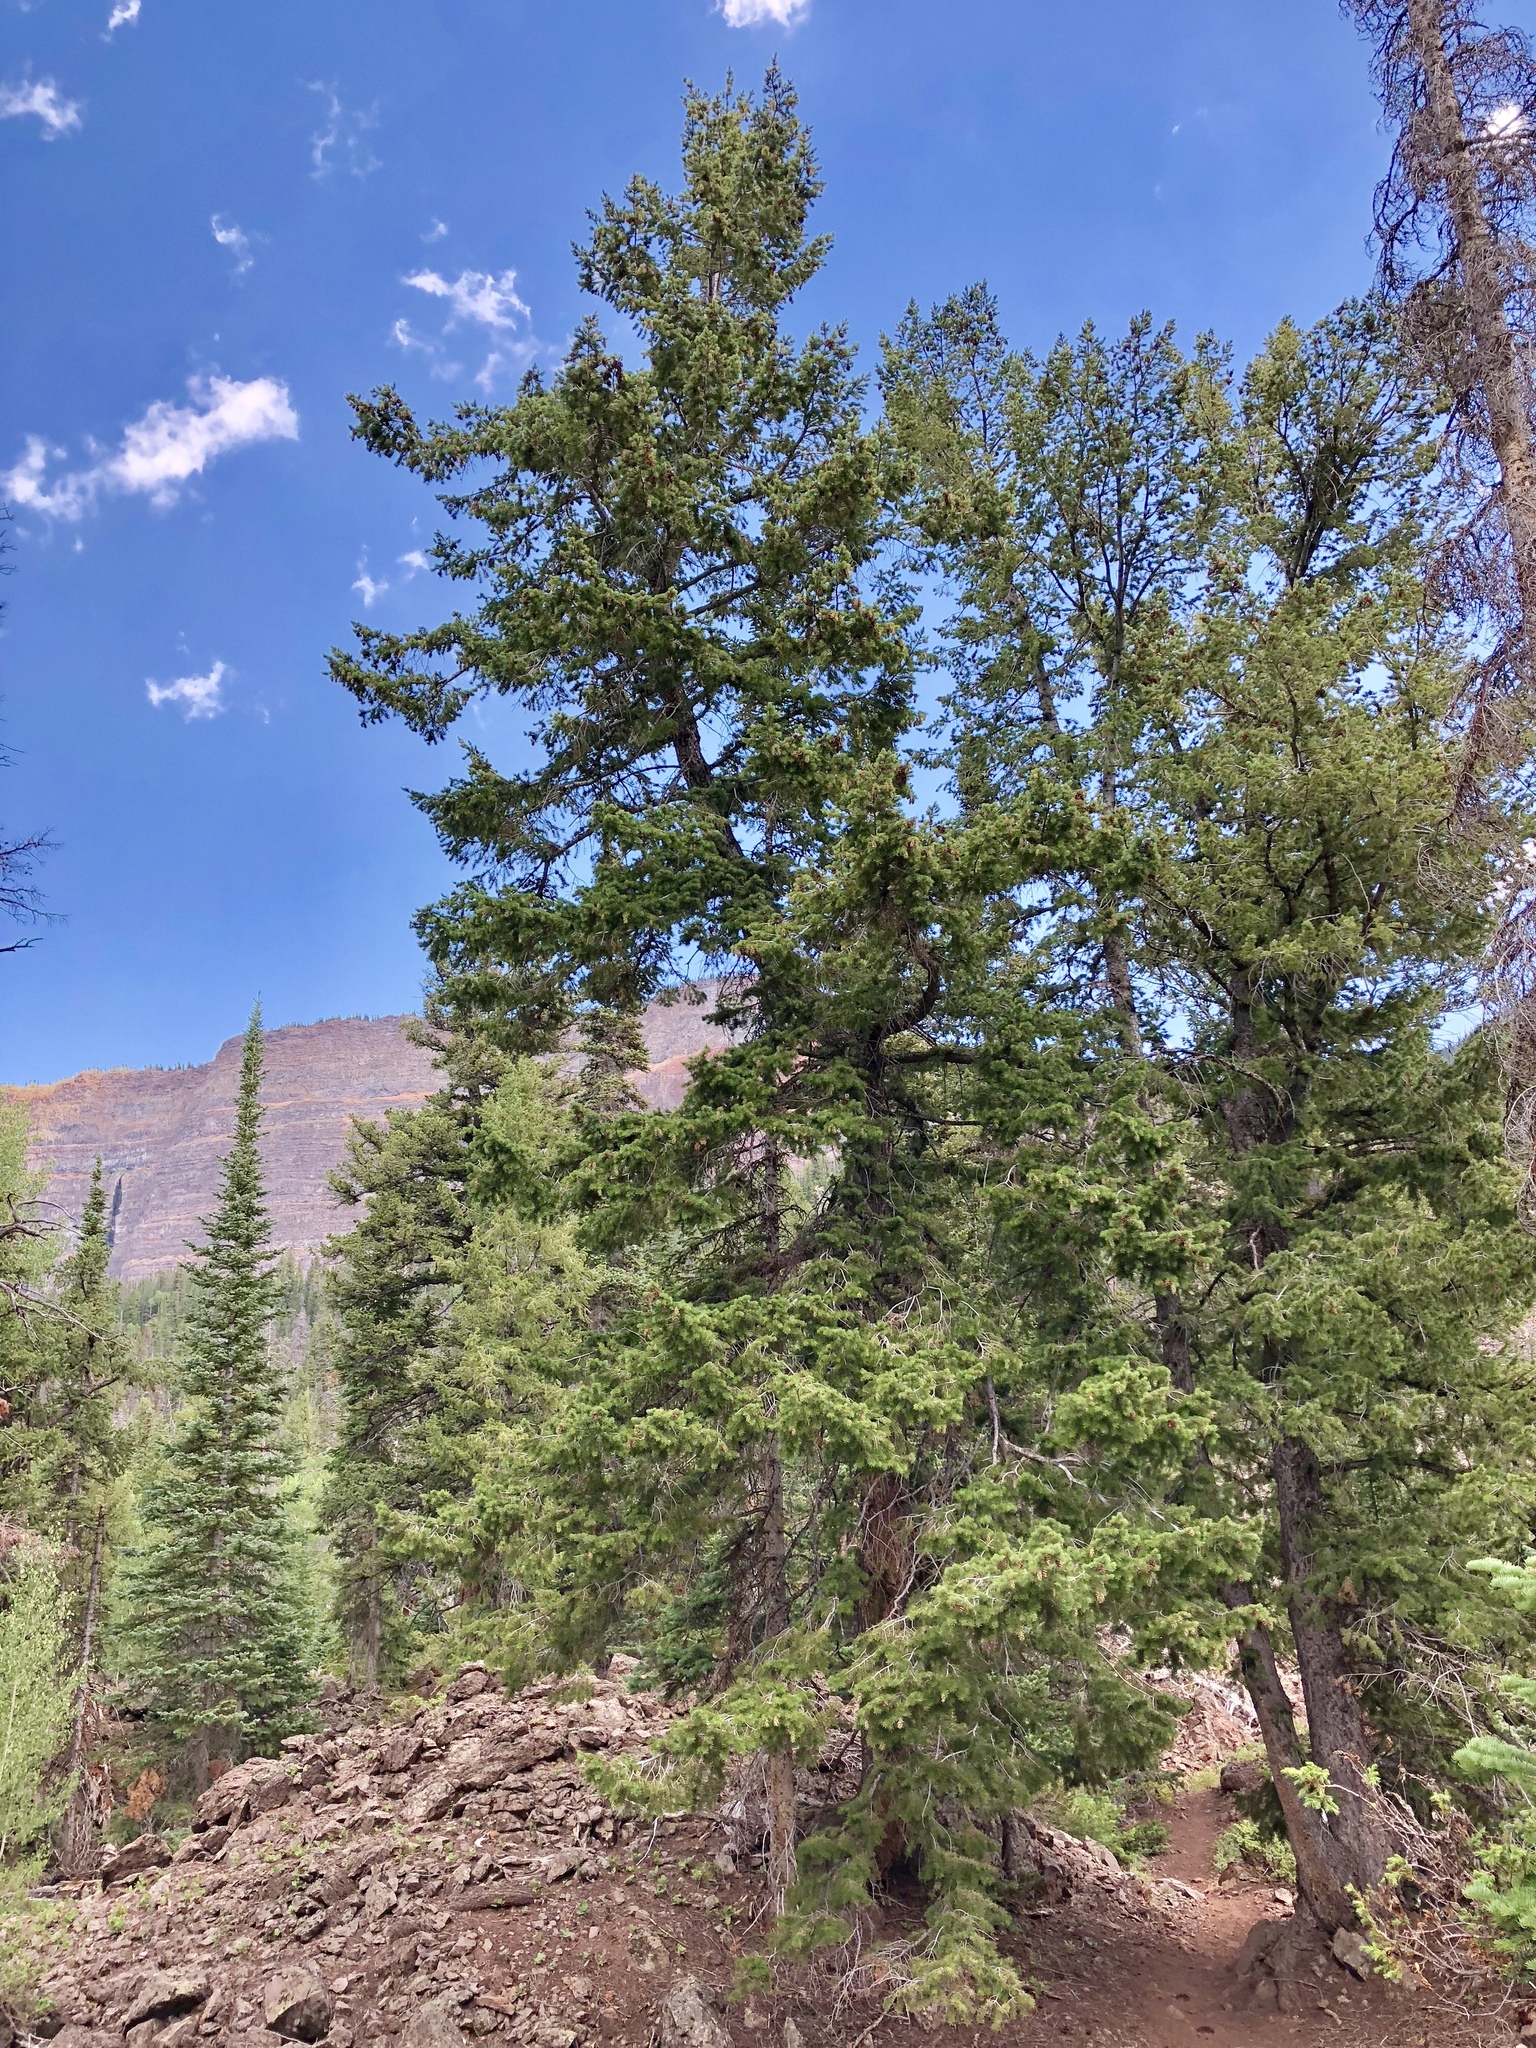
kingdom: Plantae
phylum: Tracheophyta
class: Pinopsida
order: Pinales
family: Pinaceae
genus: Pseudotsuga
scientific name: Pseudotsuga menziesii
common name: Douglas fir
